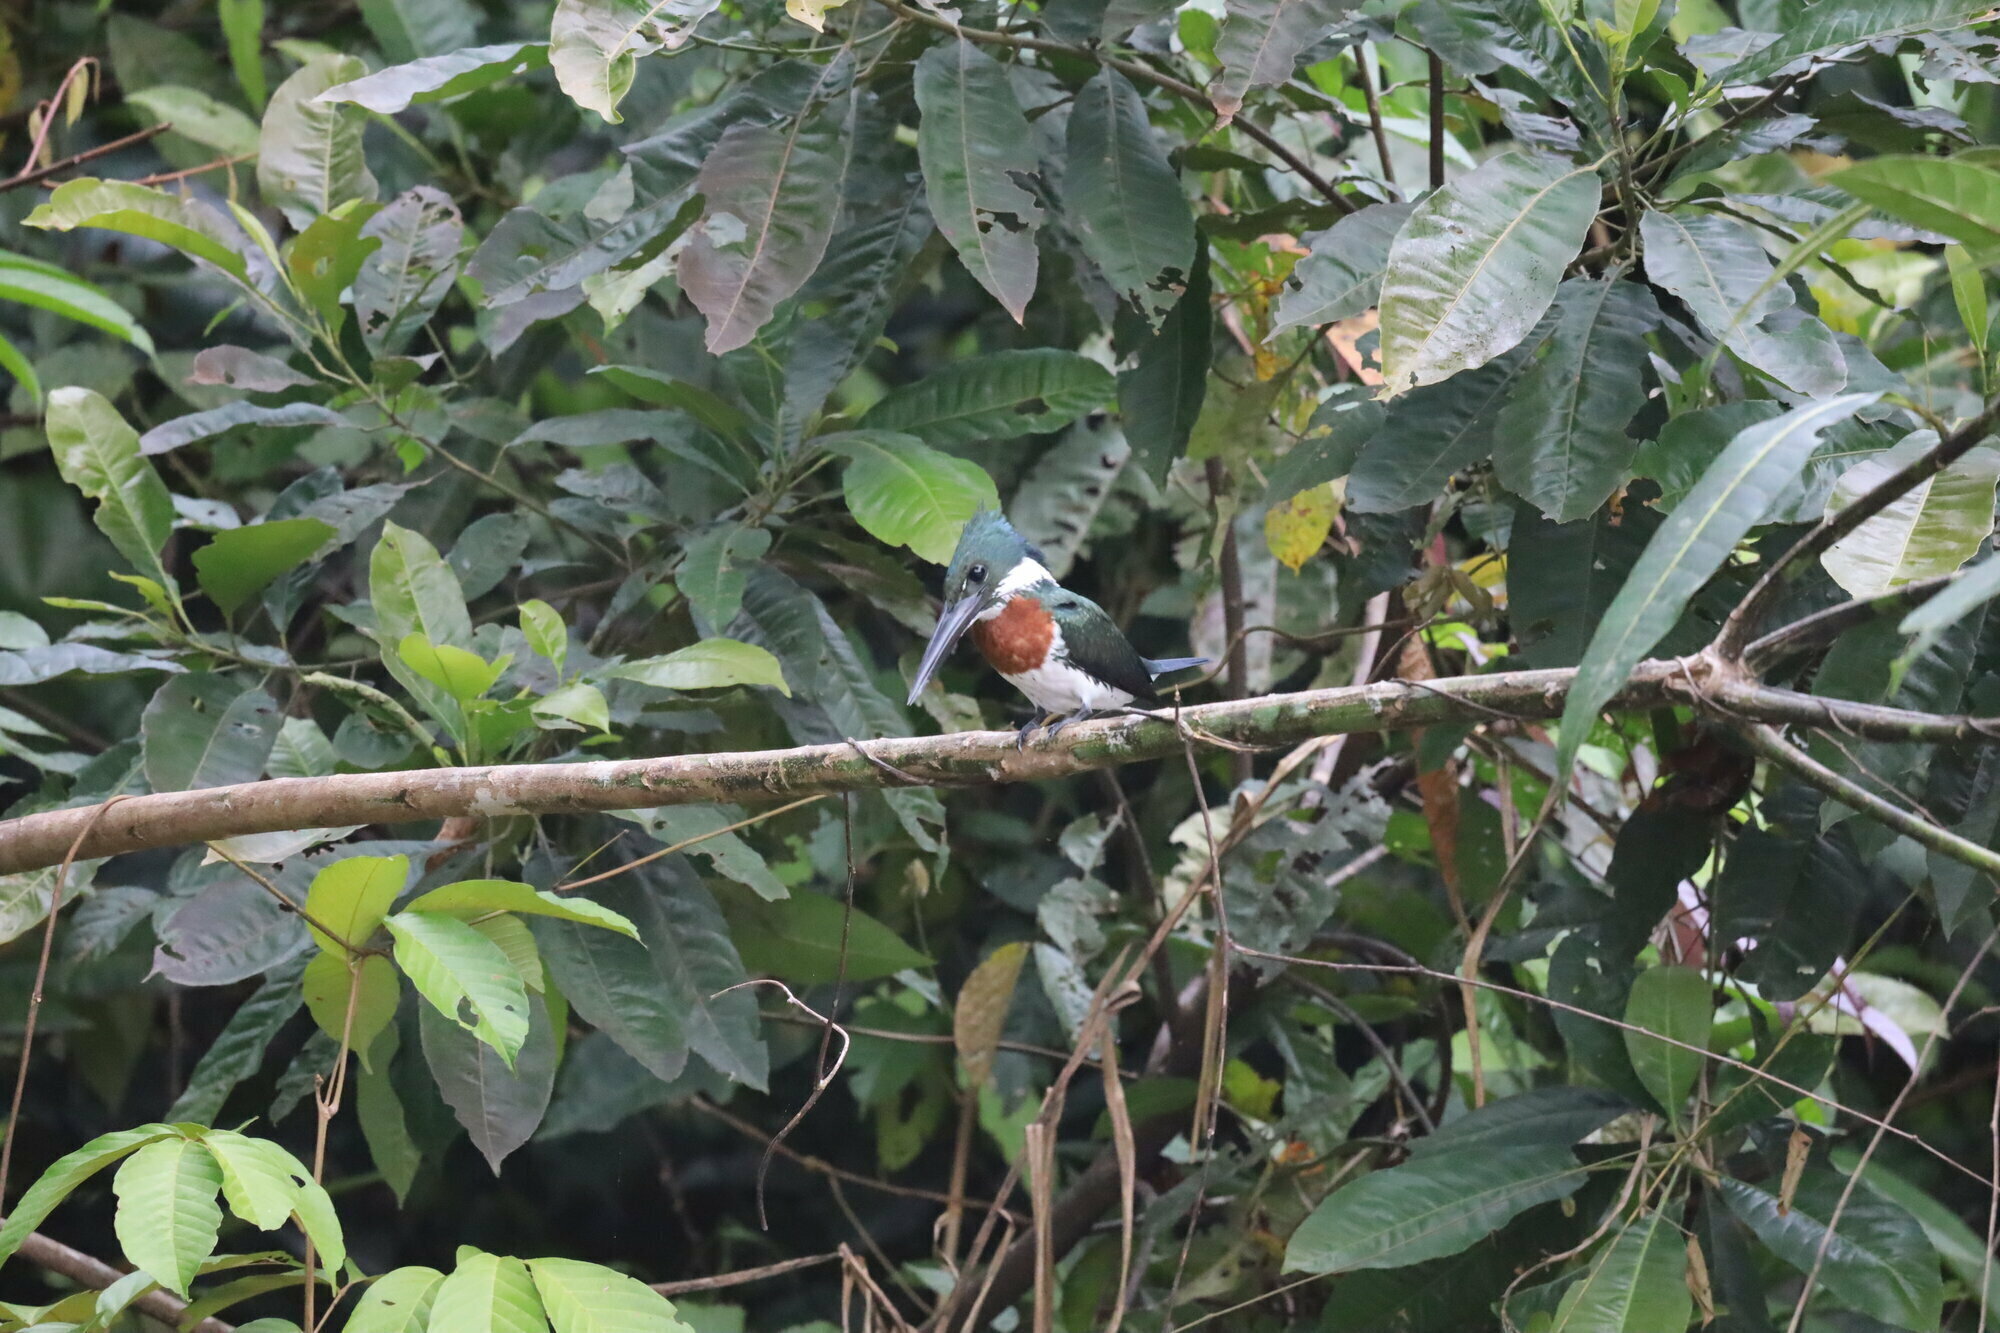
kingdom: Animalia
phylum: Chordata
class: Aves
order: Coraciiformes
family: Alcedinidae
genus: Chloroceryle
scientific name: Chloroceryle amazona
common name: Amazon kingfisher
